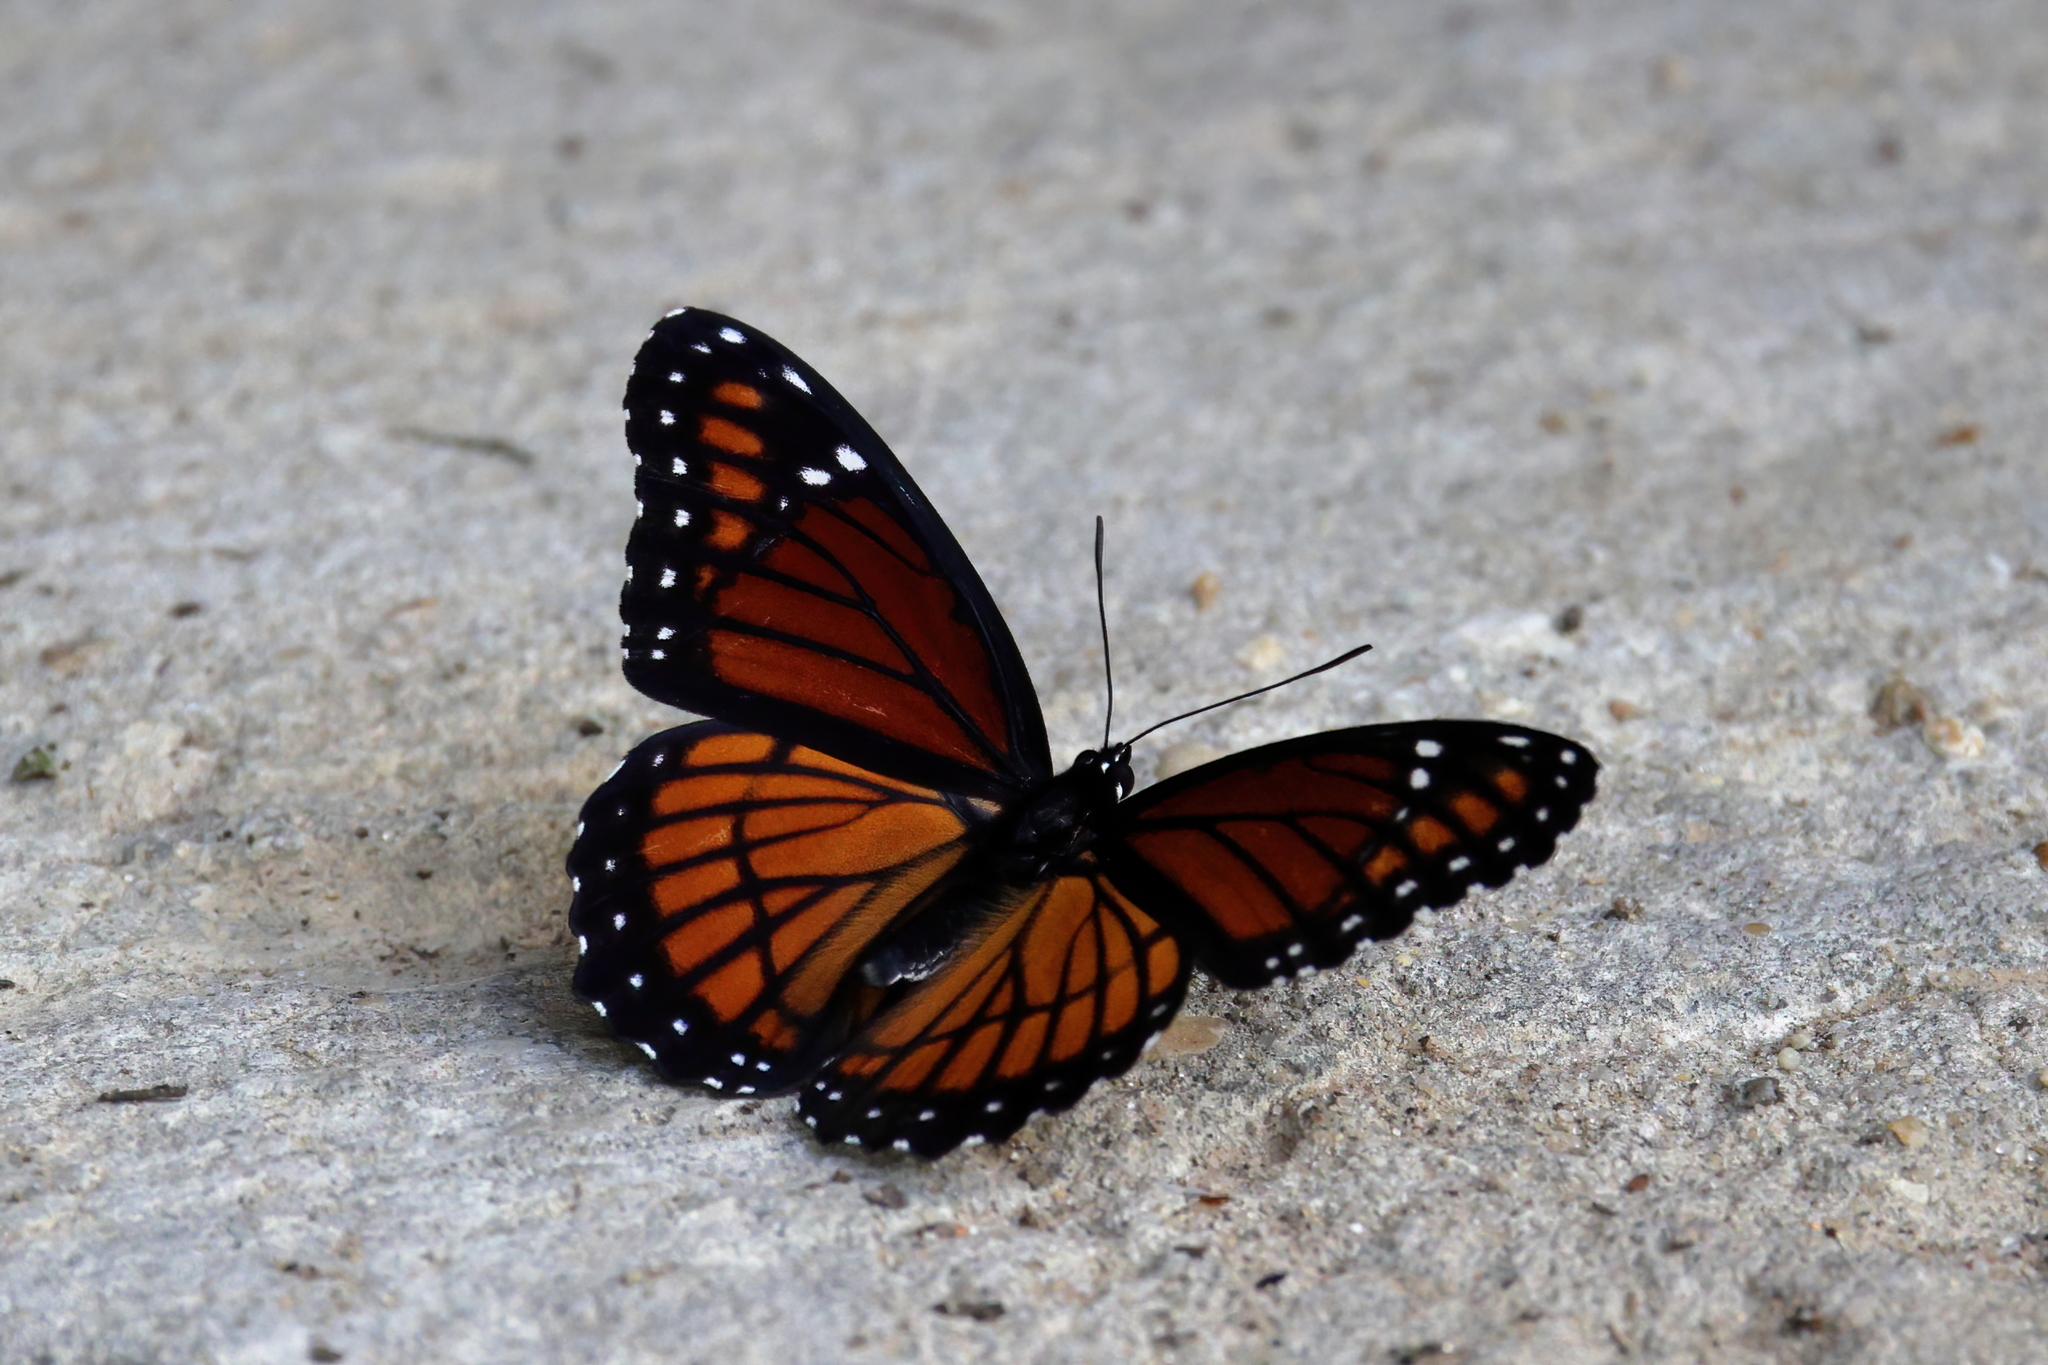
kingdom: Animalia
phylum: Arthropoda
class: Insecta
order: Lepidoptera
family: Nymphalidae
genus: Limenitis
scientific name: Limenitis archippus
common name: Viceroy
